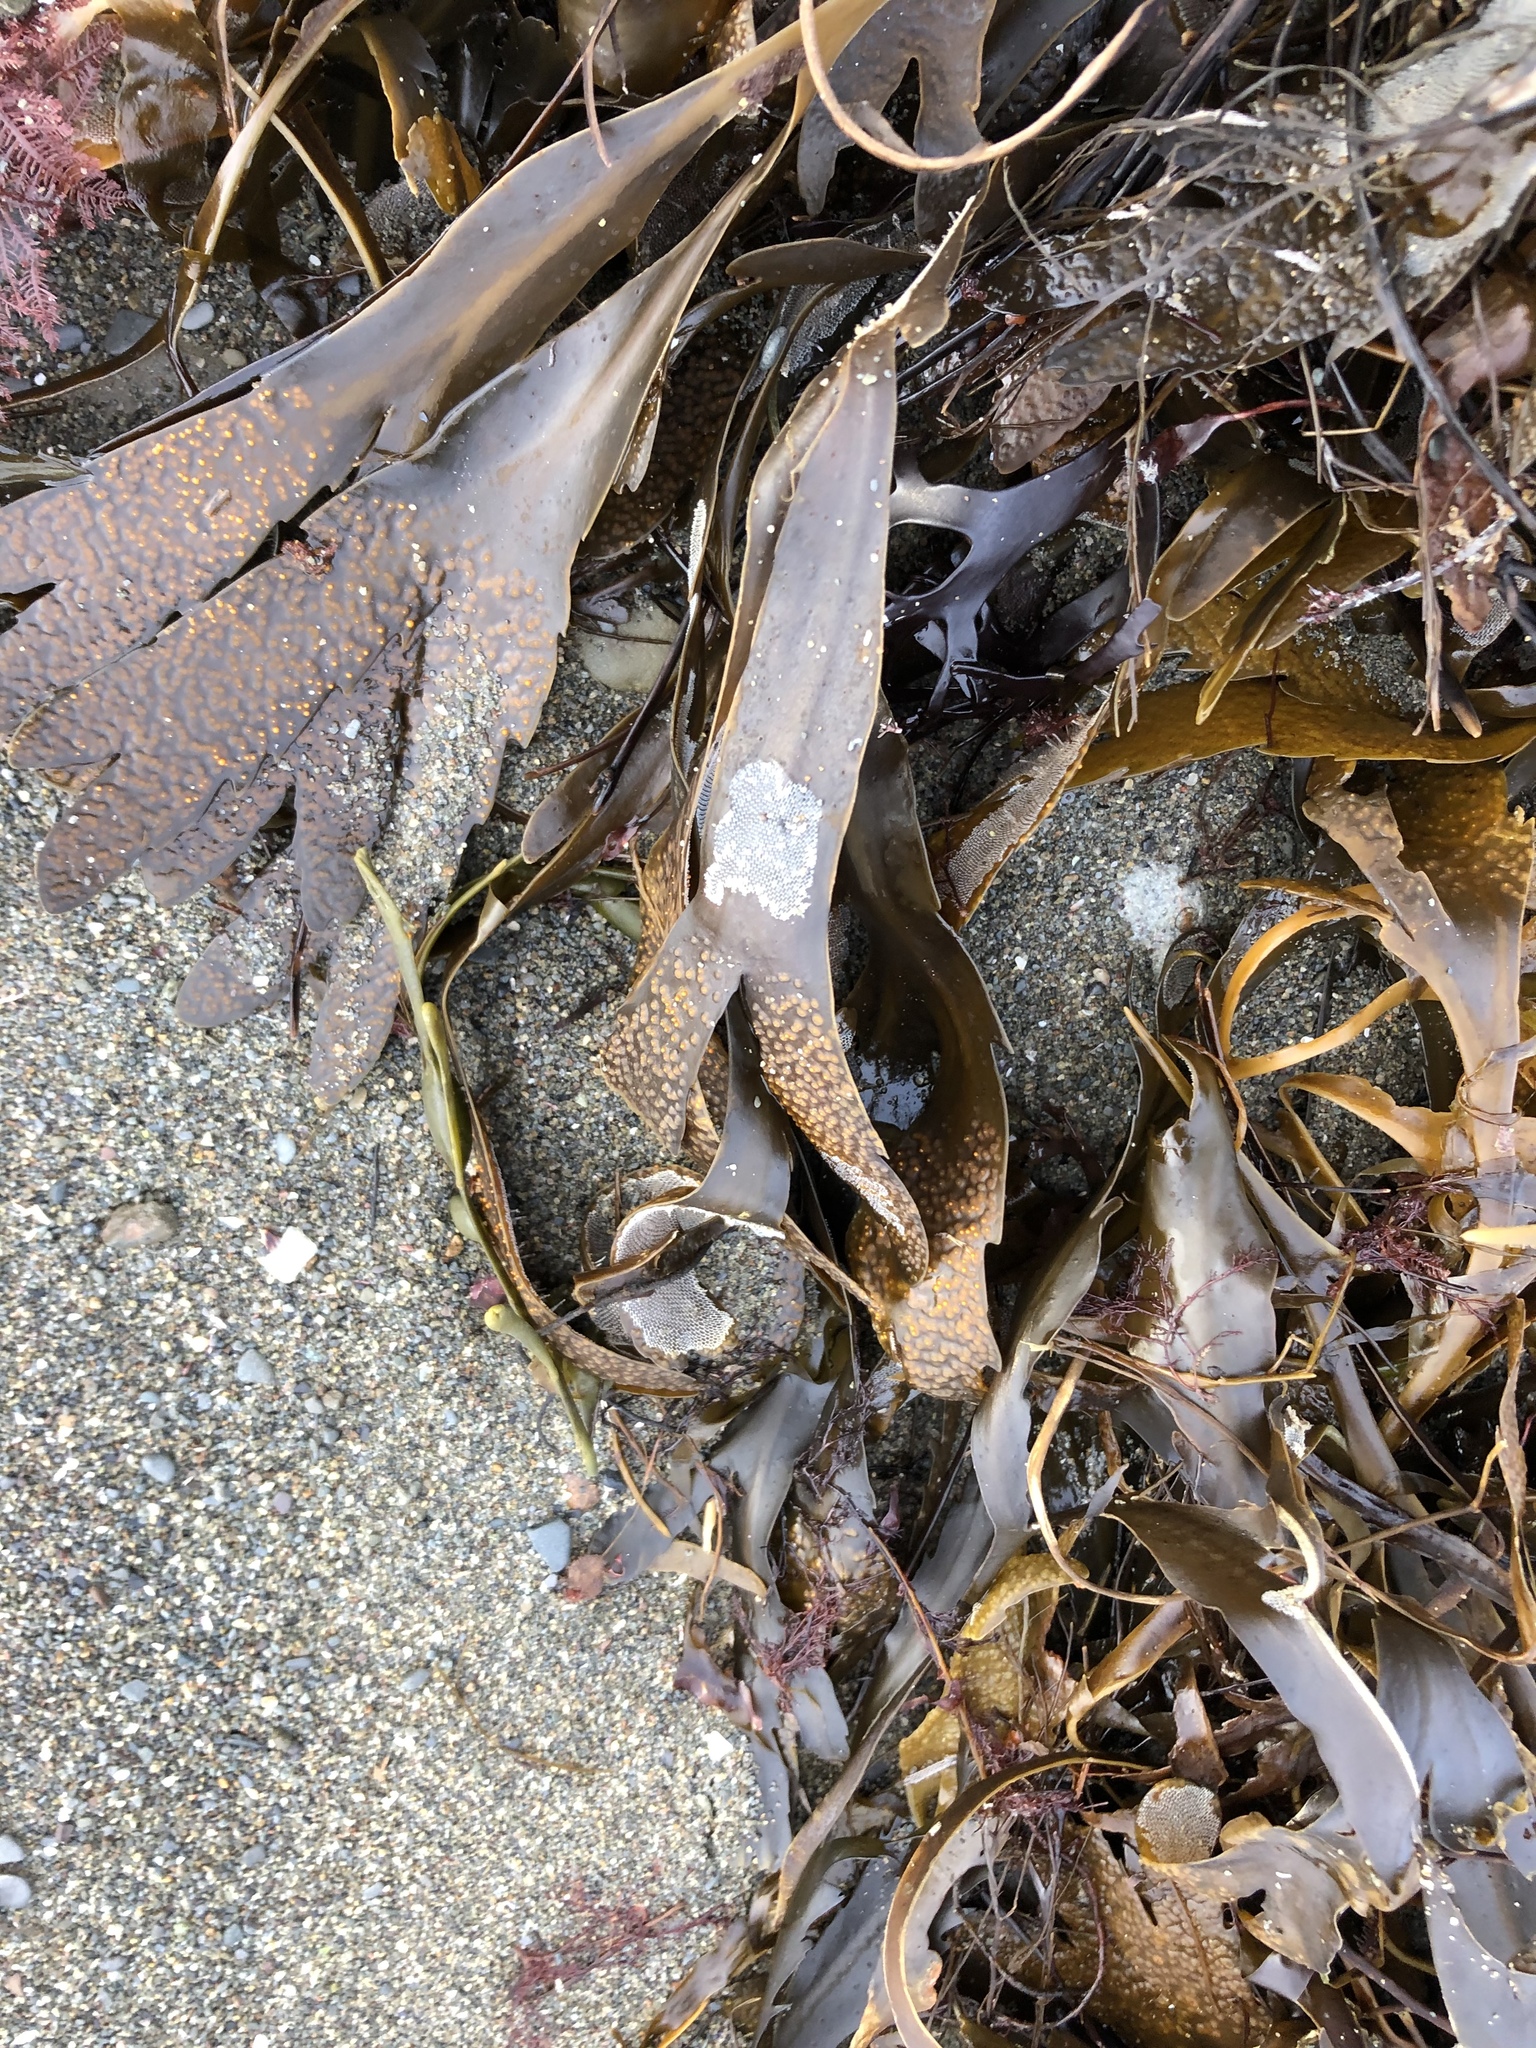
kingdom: Animalia
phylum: Bryozoa
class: Gymnolaemata
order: Cheilostomatida
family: Membraniporidae
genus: Membranipora
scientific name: Membranipora membranacea
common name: Sea mat
